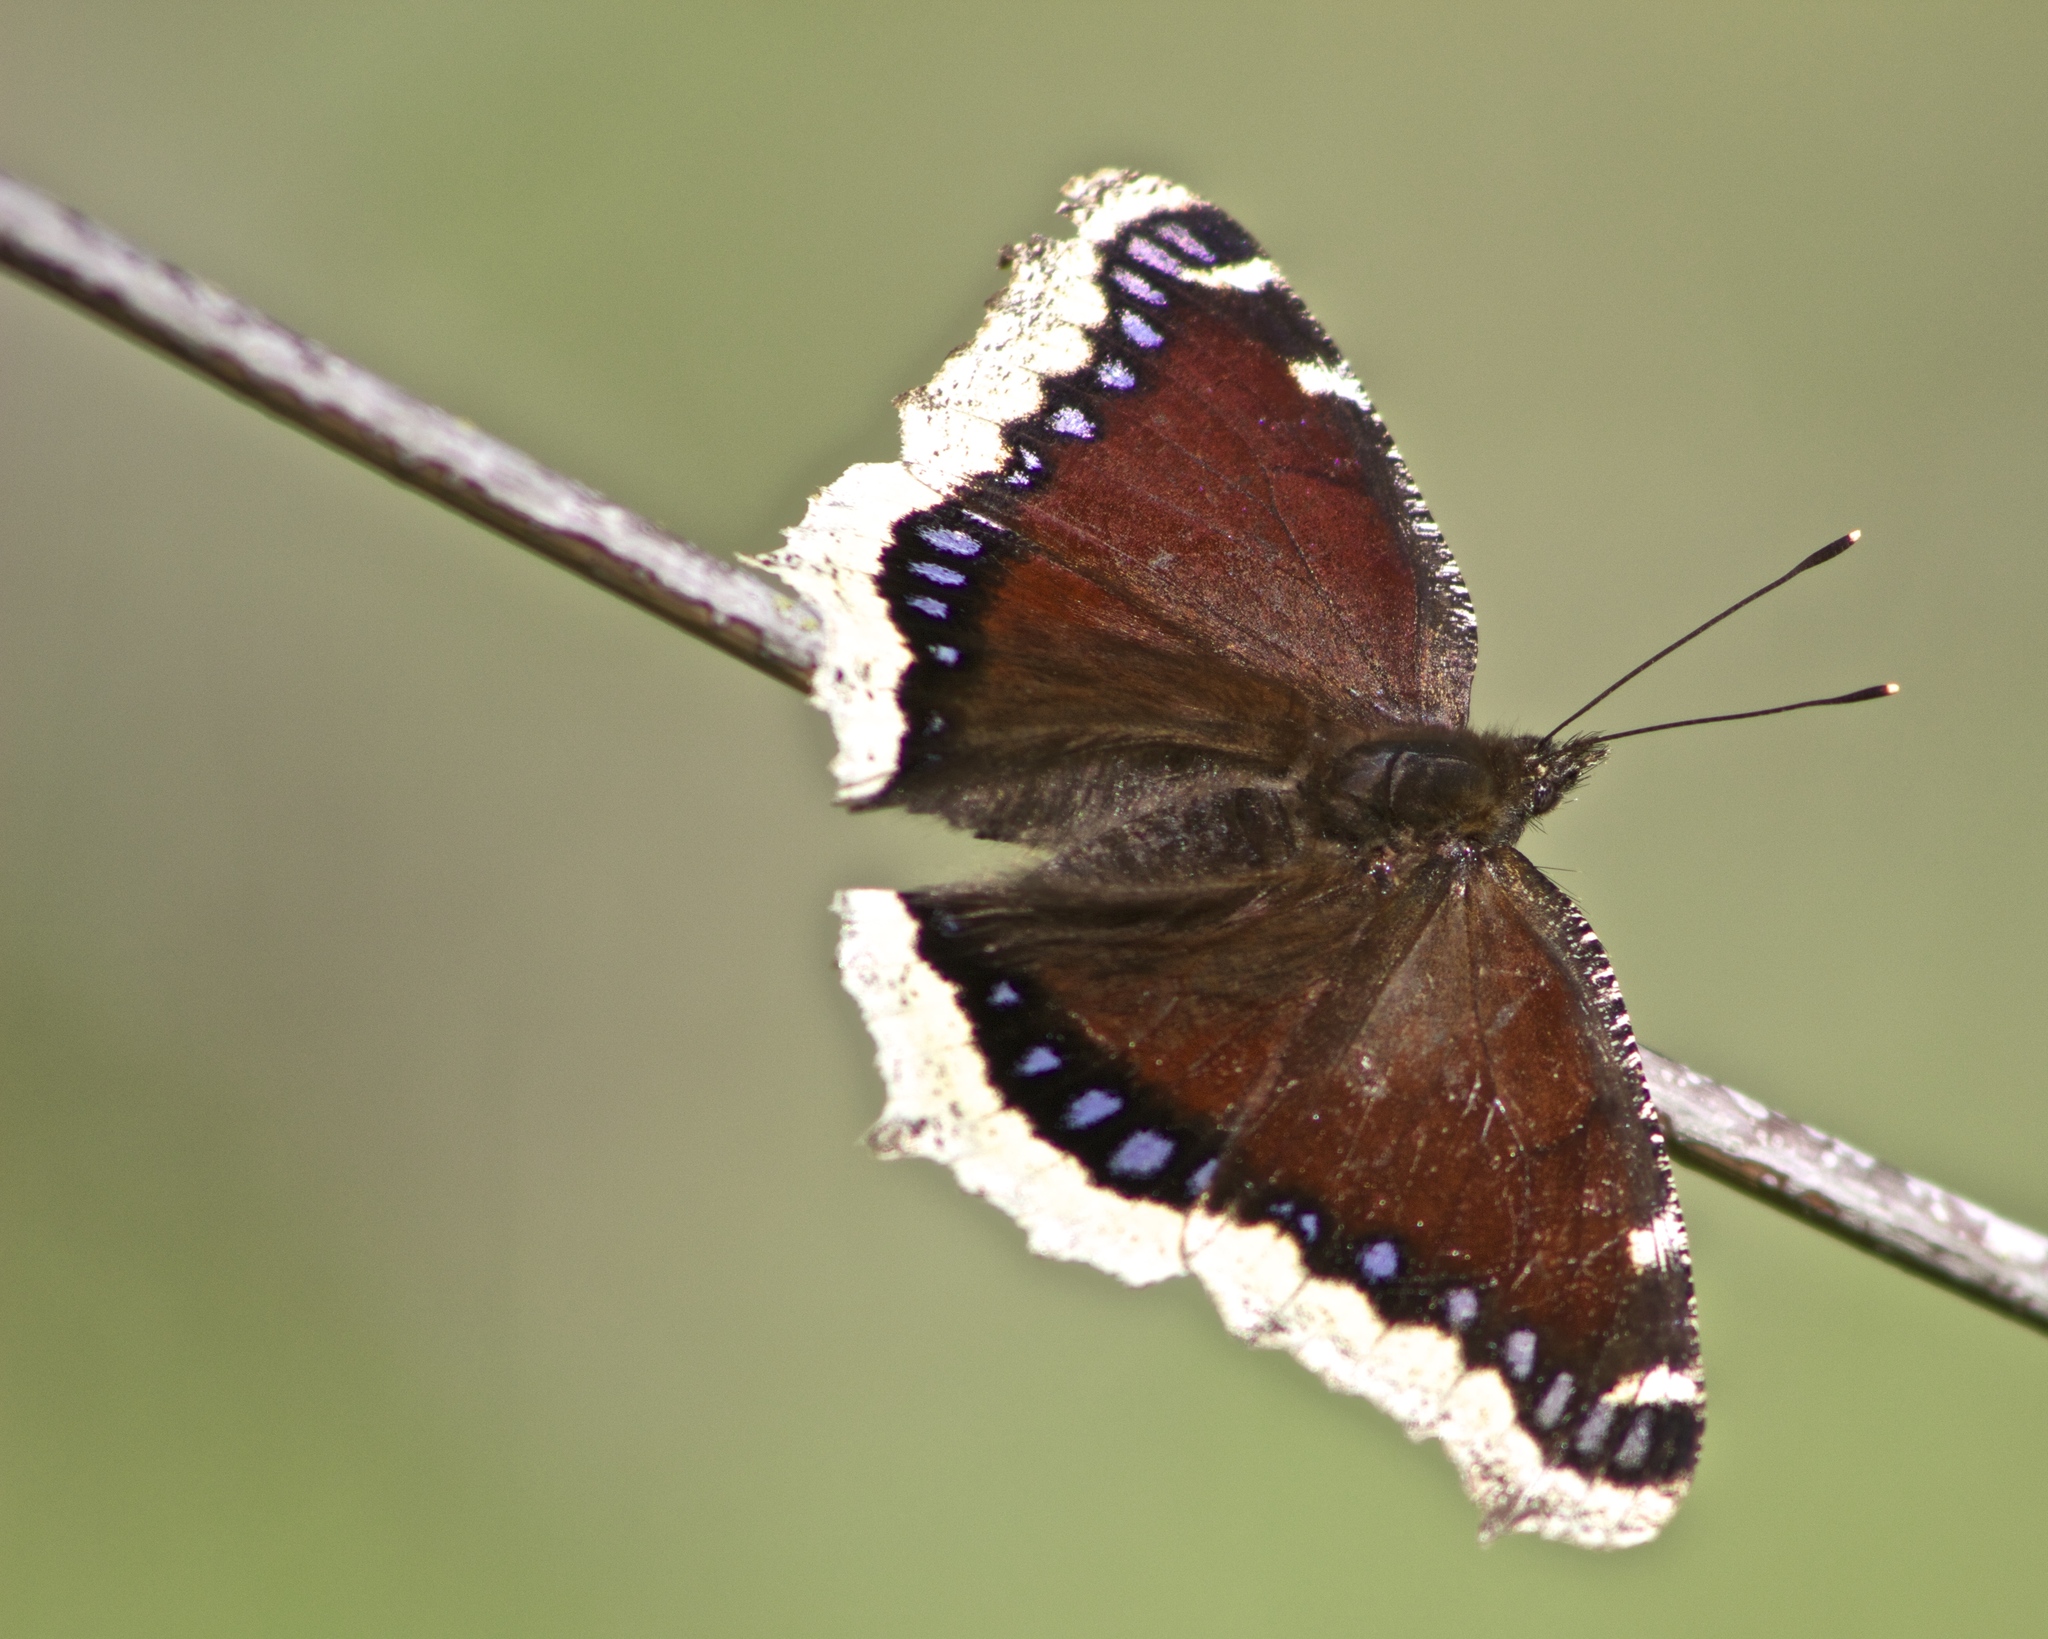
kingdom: Animalia
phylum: Arthropoda
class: Insecta
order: Lepidoptera
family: Nymphalidae
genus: Nymphalis
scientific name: Nymphalis antiopa
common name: Camberwell beauty
